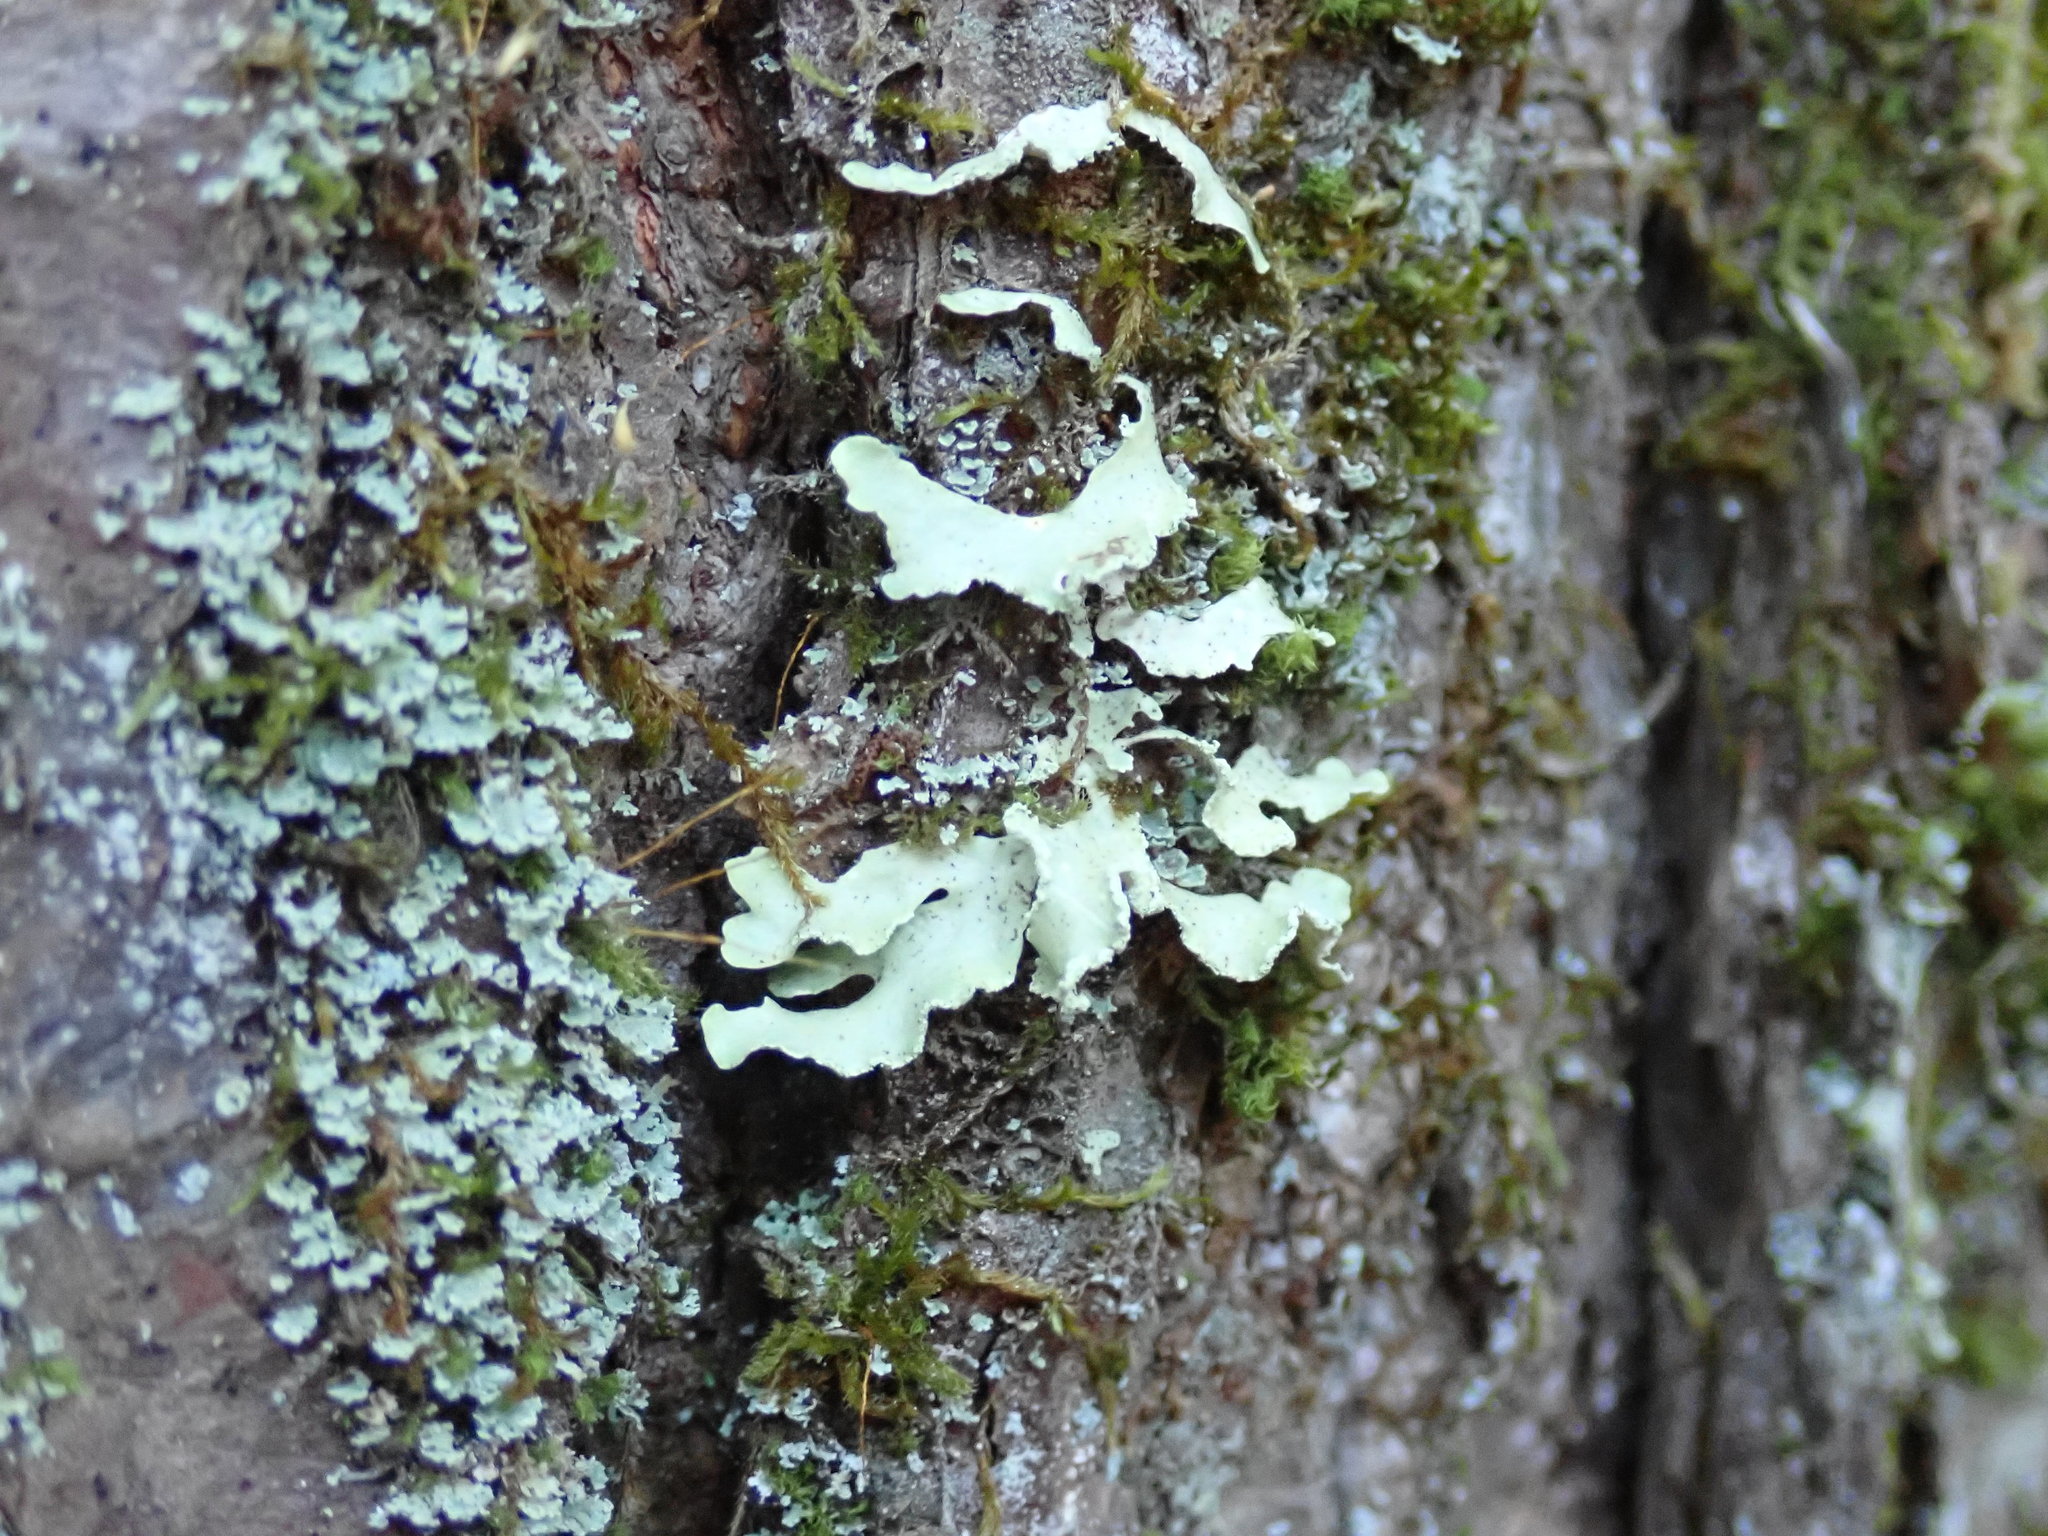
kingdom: Fungi
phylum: Ascomycota
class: Lecanoromycetes
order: Lecanorales
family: Parmeliaceae
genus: Usnocetraria
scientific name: Usnocetraria oakesiana
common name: Yellow ribbon lichen
